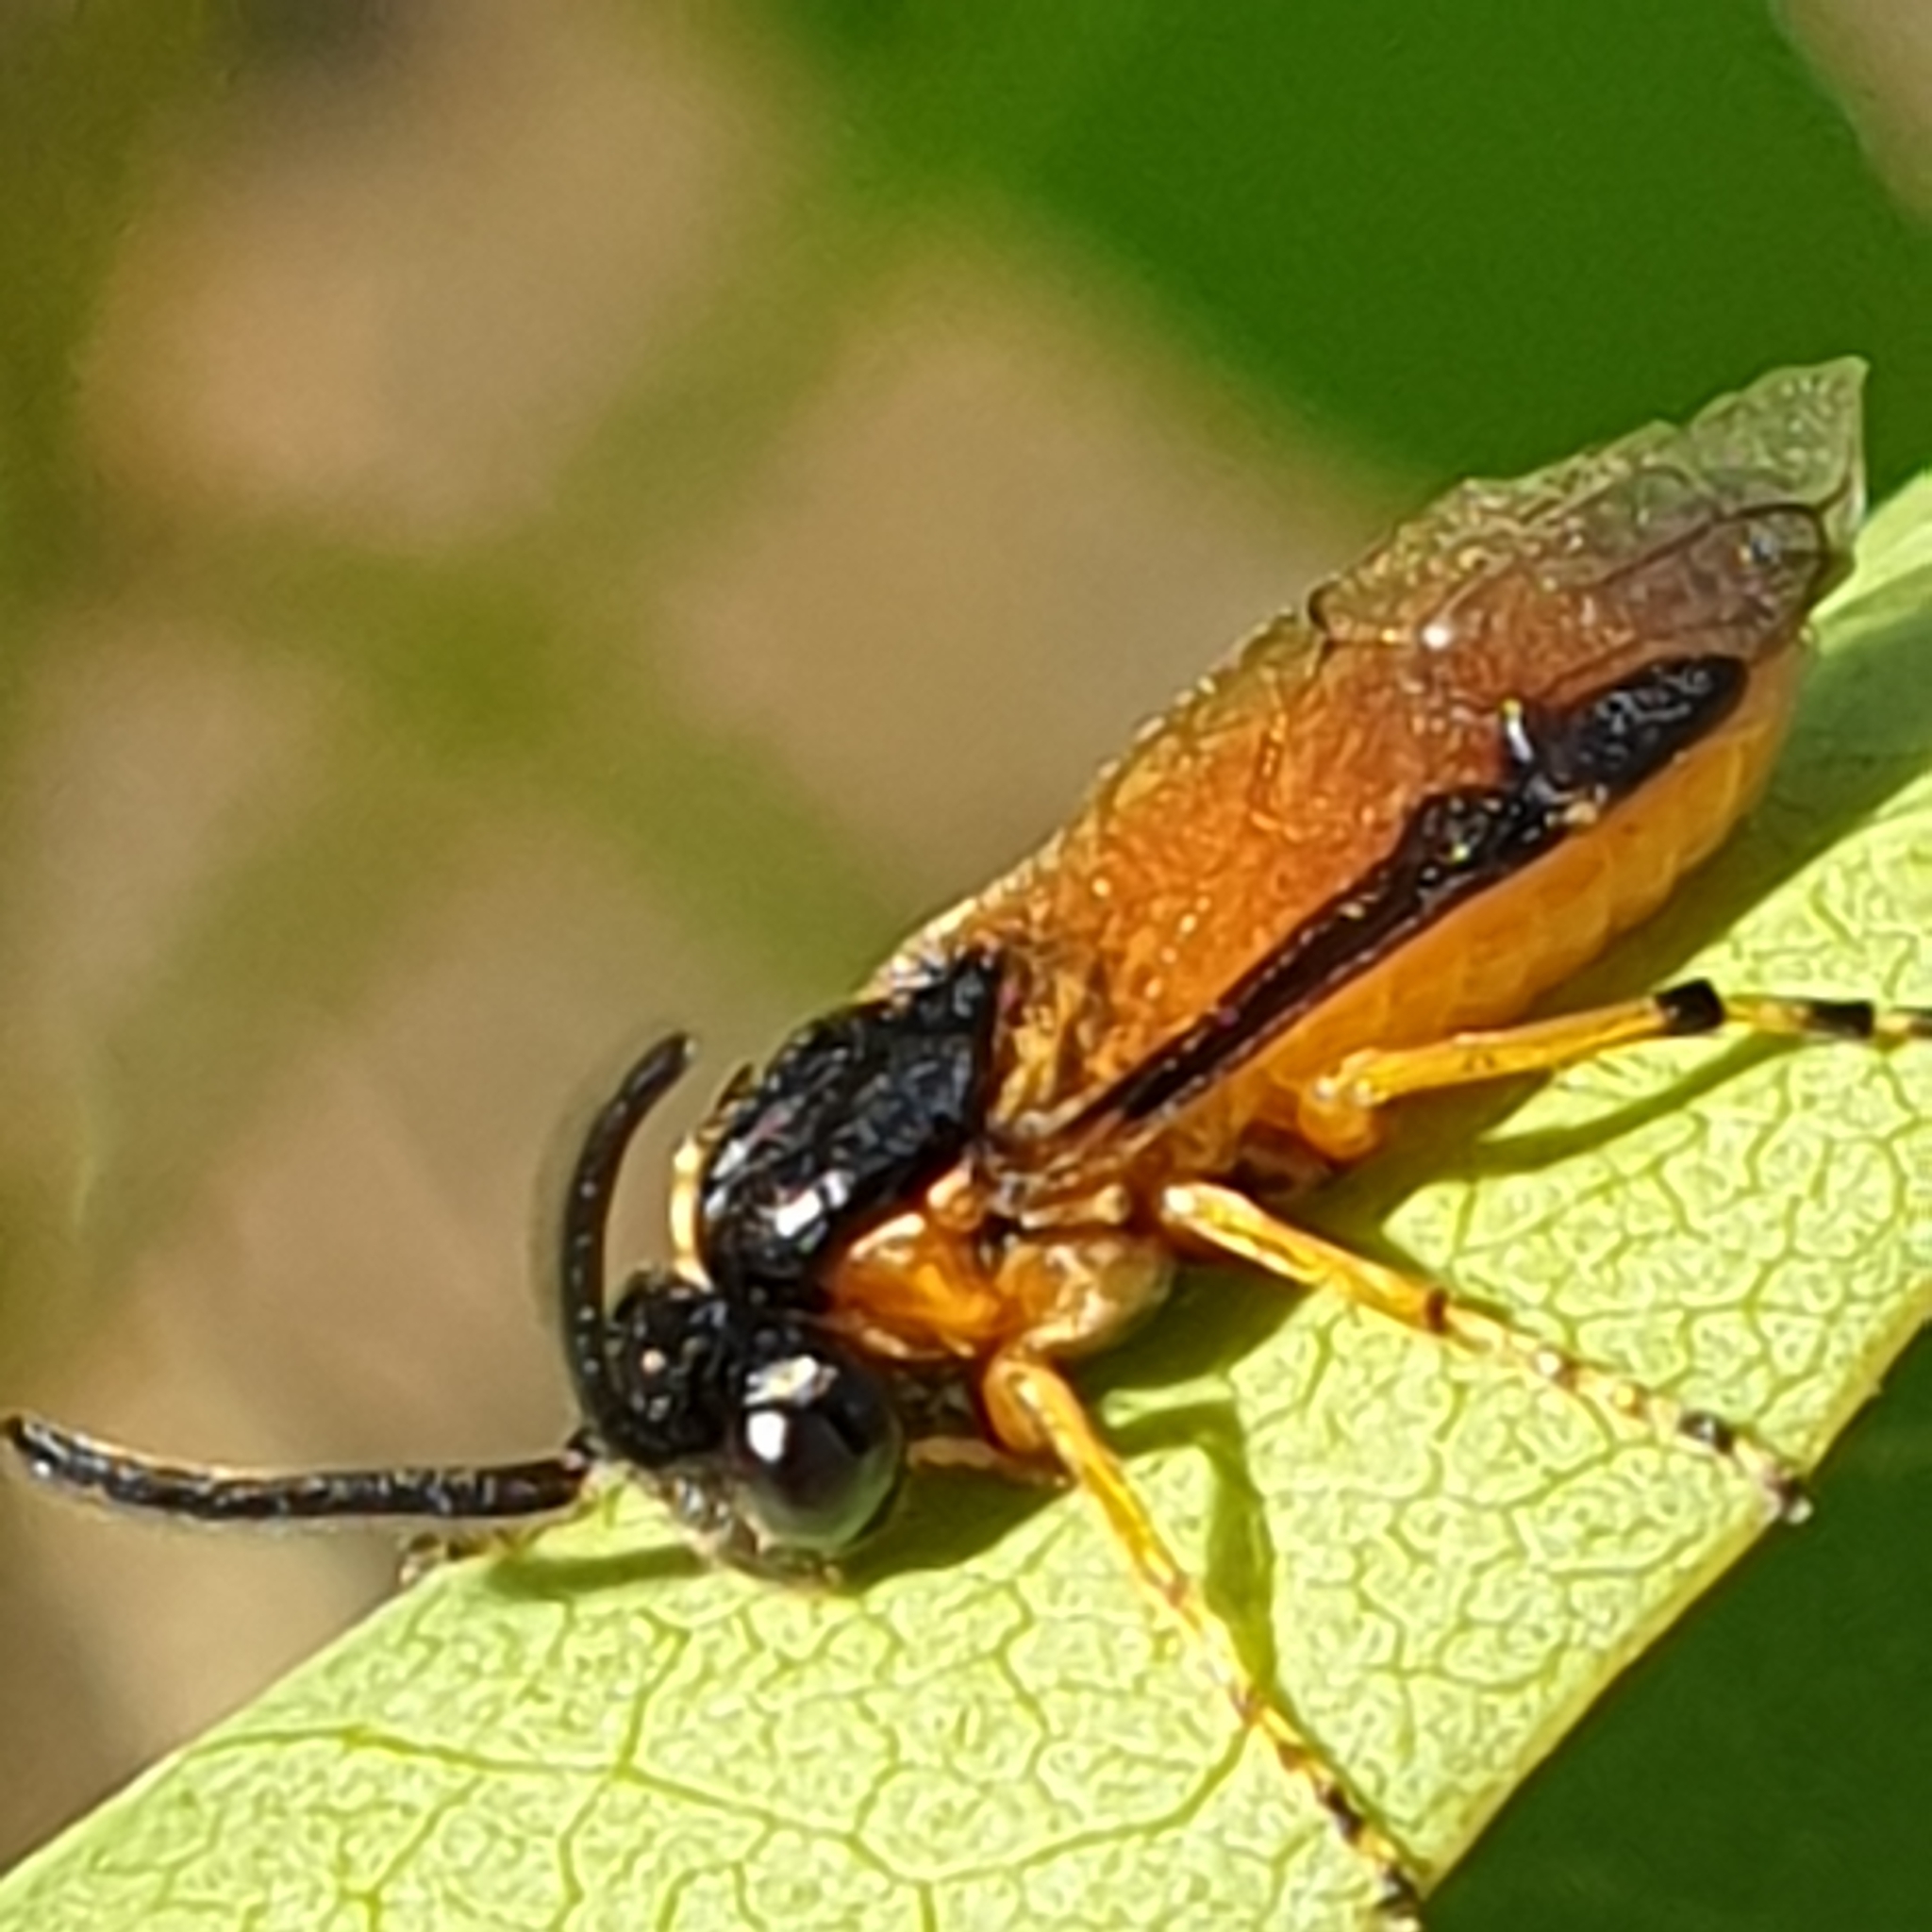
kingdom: Animalia
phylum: Arthropoda
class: Insecta
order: Hymenoptera
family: Argidae
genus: Arge
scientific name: Arge ochropus
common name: Argid sawfly
